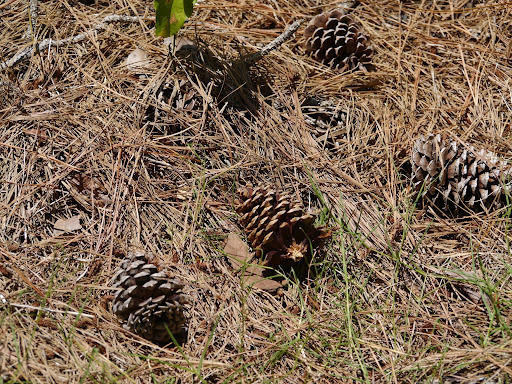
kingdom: Plantae
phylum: Tracheophyta
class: Pinopsida
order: Pinales
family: Pinaceae
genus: Pinus
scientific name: Pinus taeda
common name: Loblolly pine
